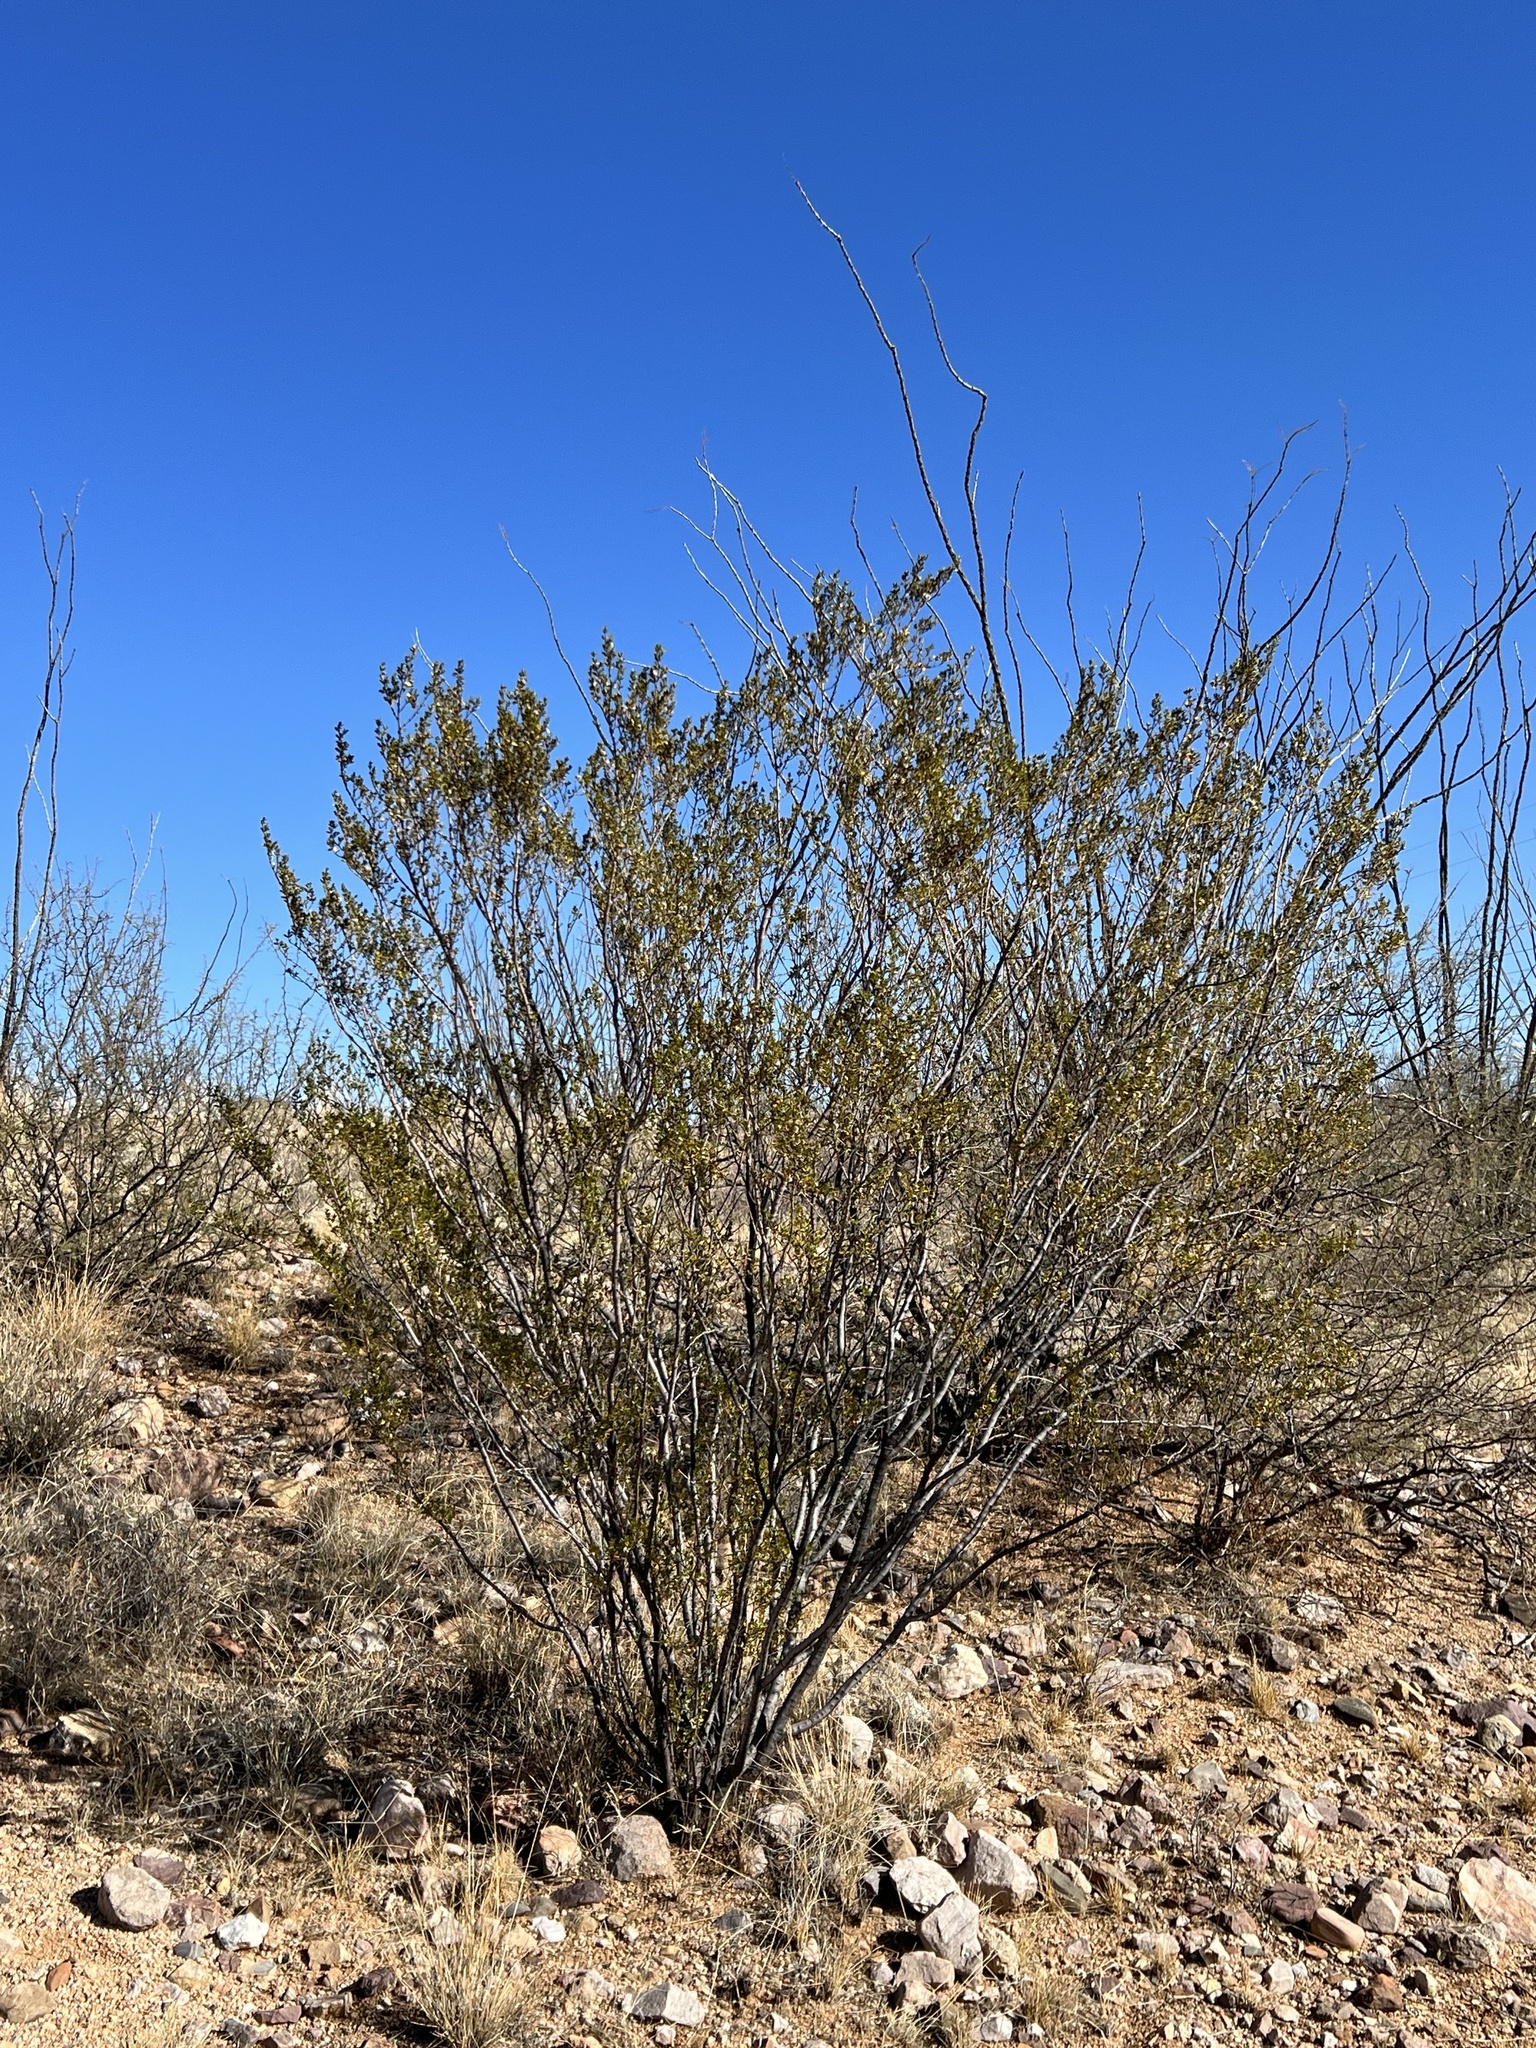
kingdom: Plantae
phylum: Tracheophyta
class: Magnoliopsida
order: Zygophyllales
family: Zygophyllaceae
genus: Larrea
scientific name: Larrea tridentata
